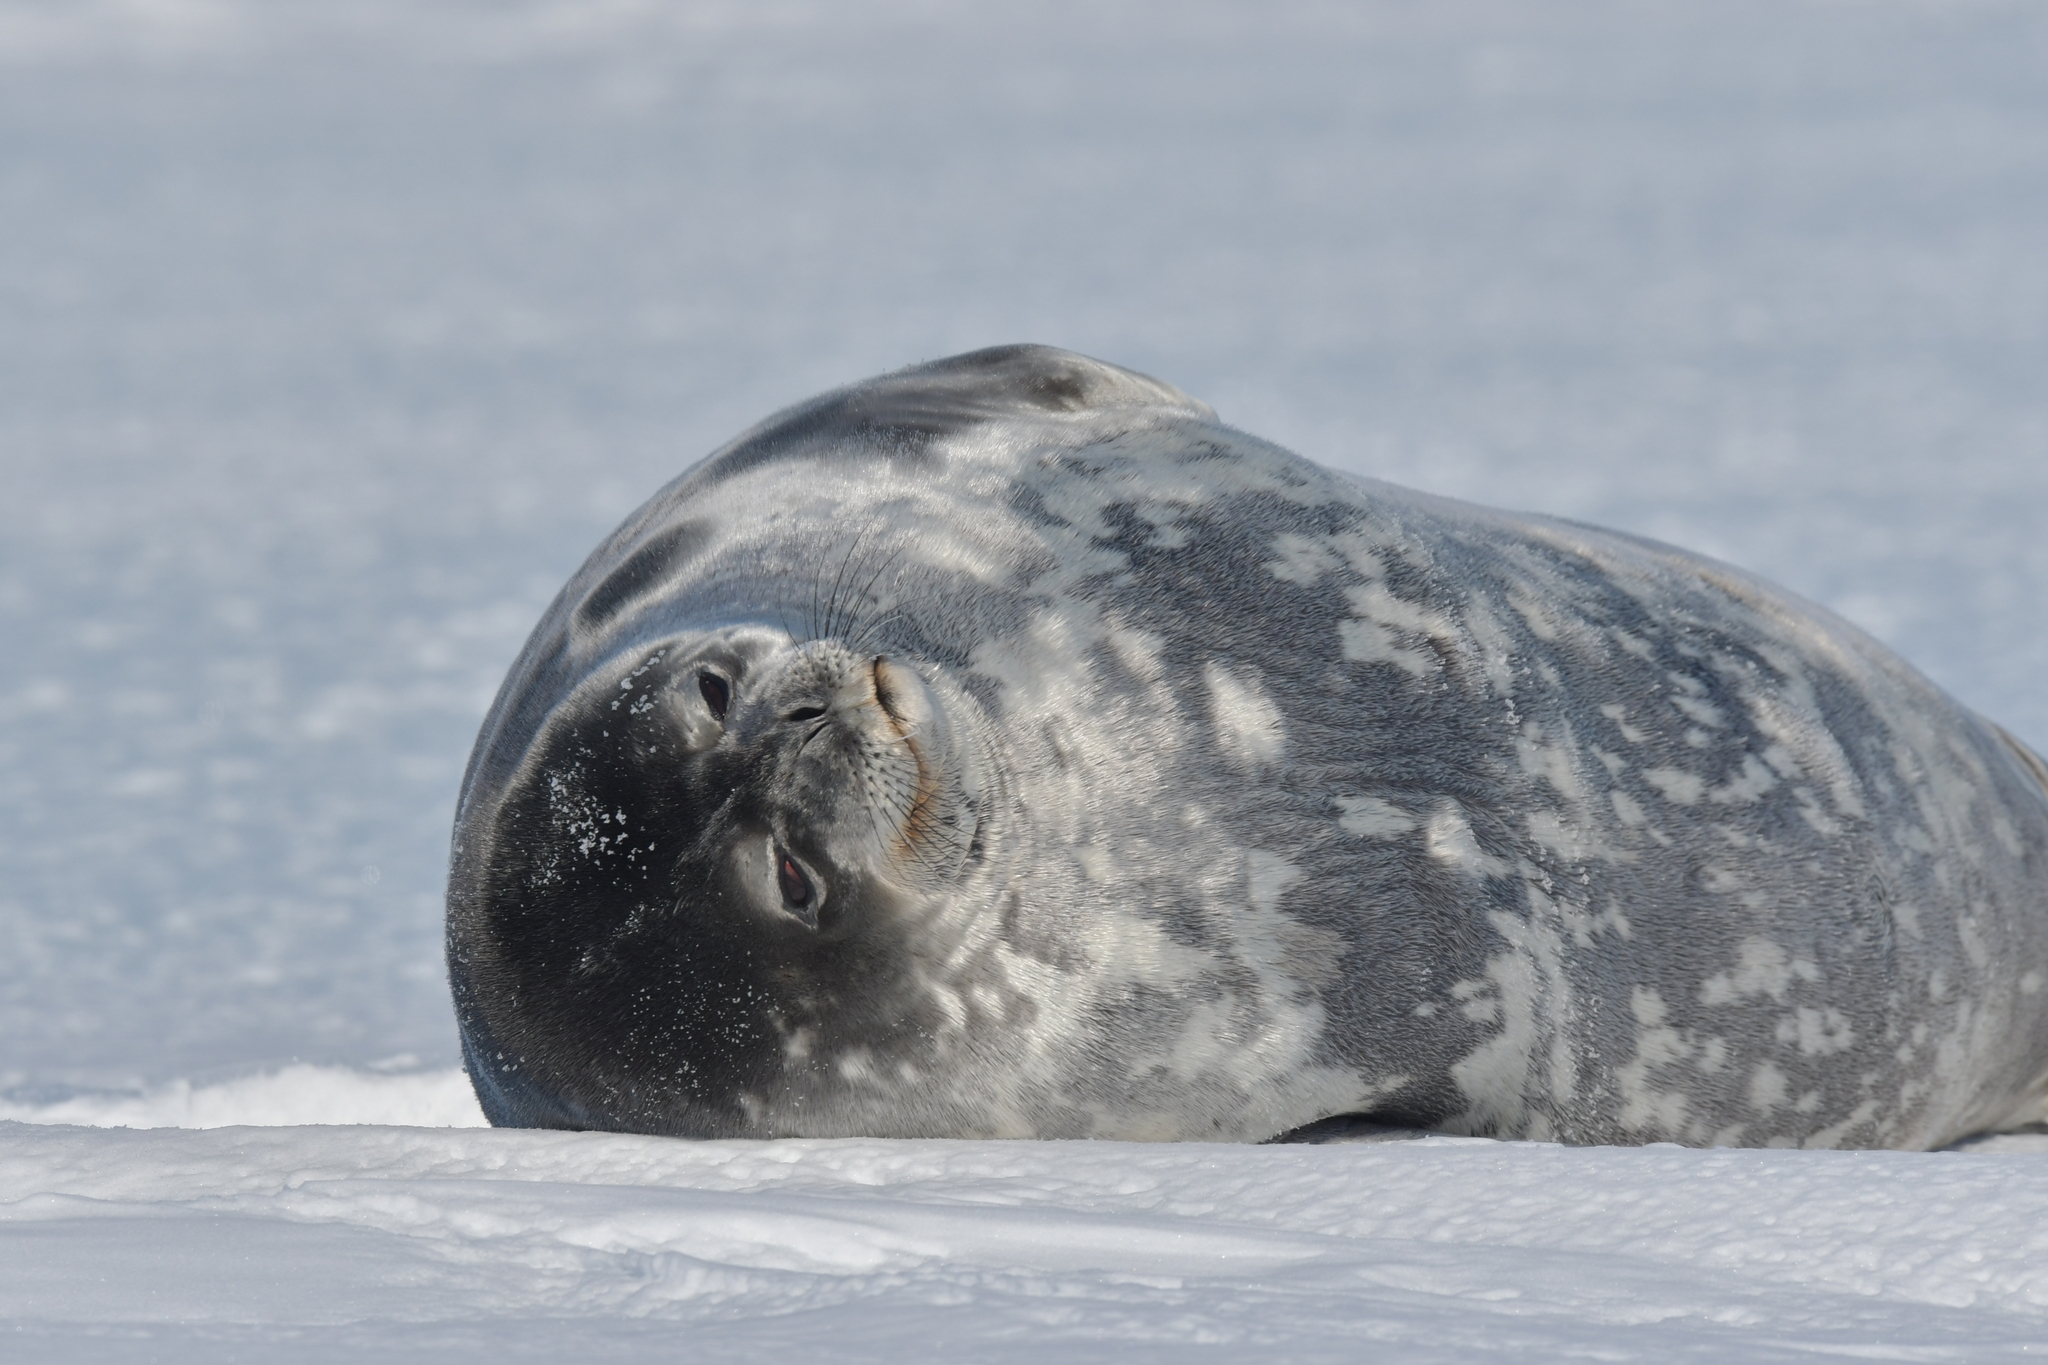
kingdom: Animalia
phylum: Chordata
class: Mammalia
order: Carnivora
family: Phocidae
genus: Leptonychotes
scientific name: Leptonychotes weddellii
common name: Weddell seal
